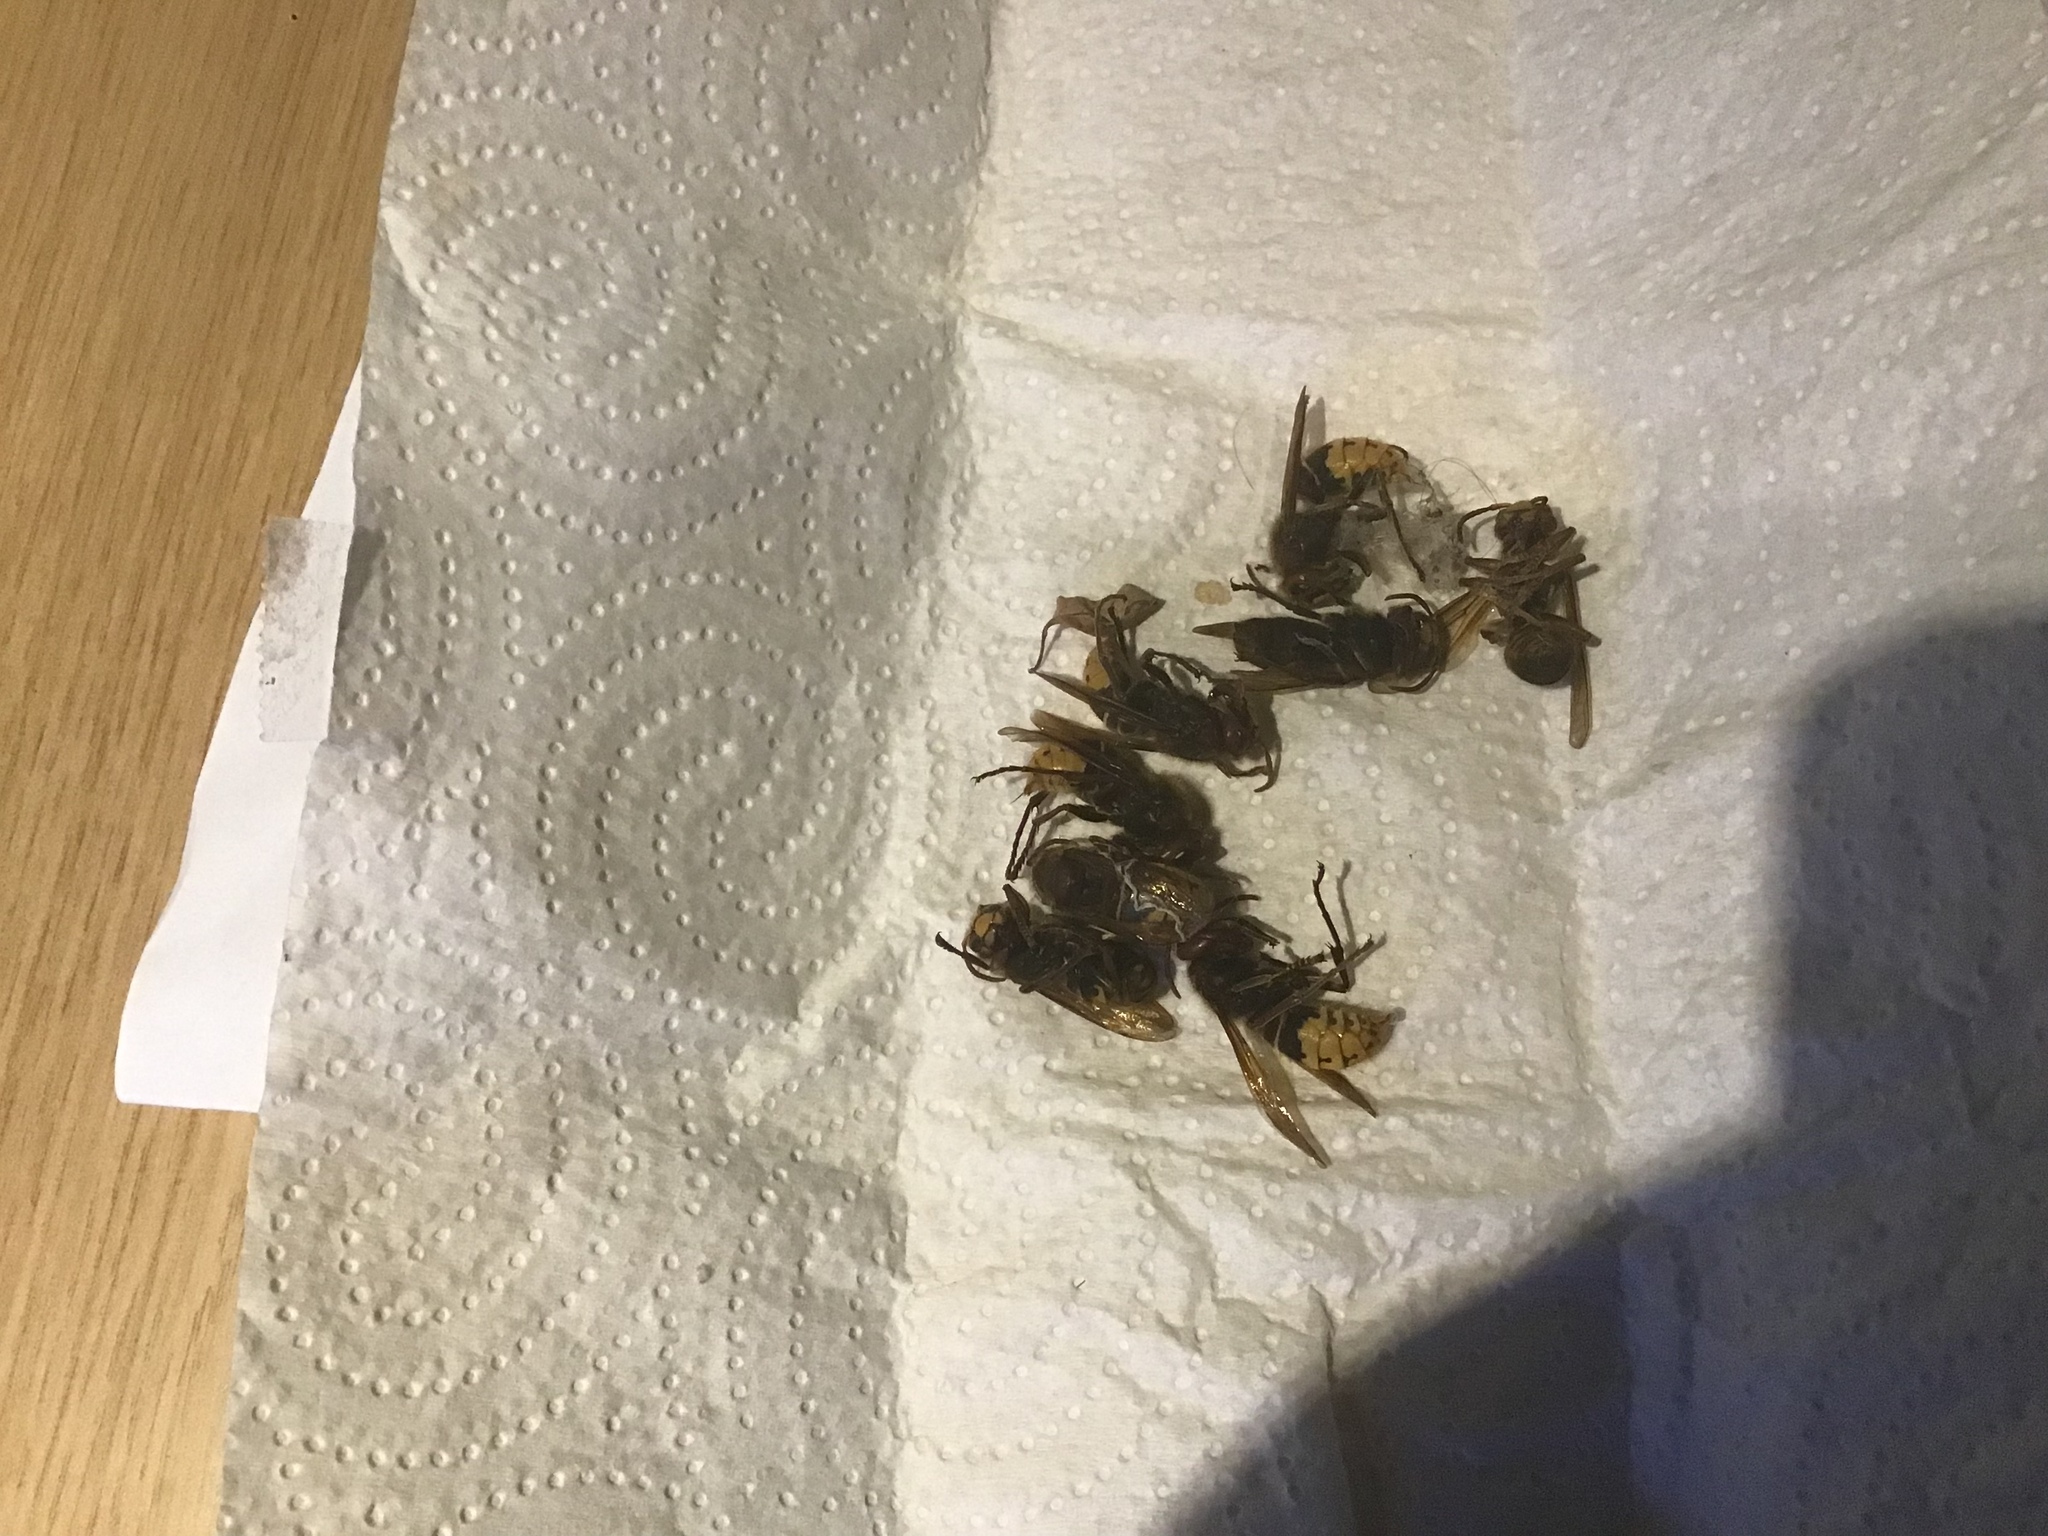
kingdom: Animalia
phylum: Arthropoda
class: Insecta
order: Hymenoptera
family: Vespidae
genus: Vespa
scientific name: Vespa crabro
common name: Hornet
